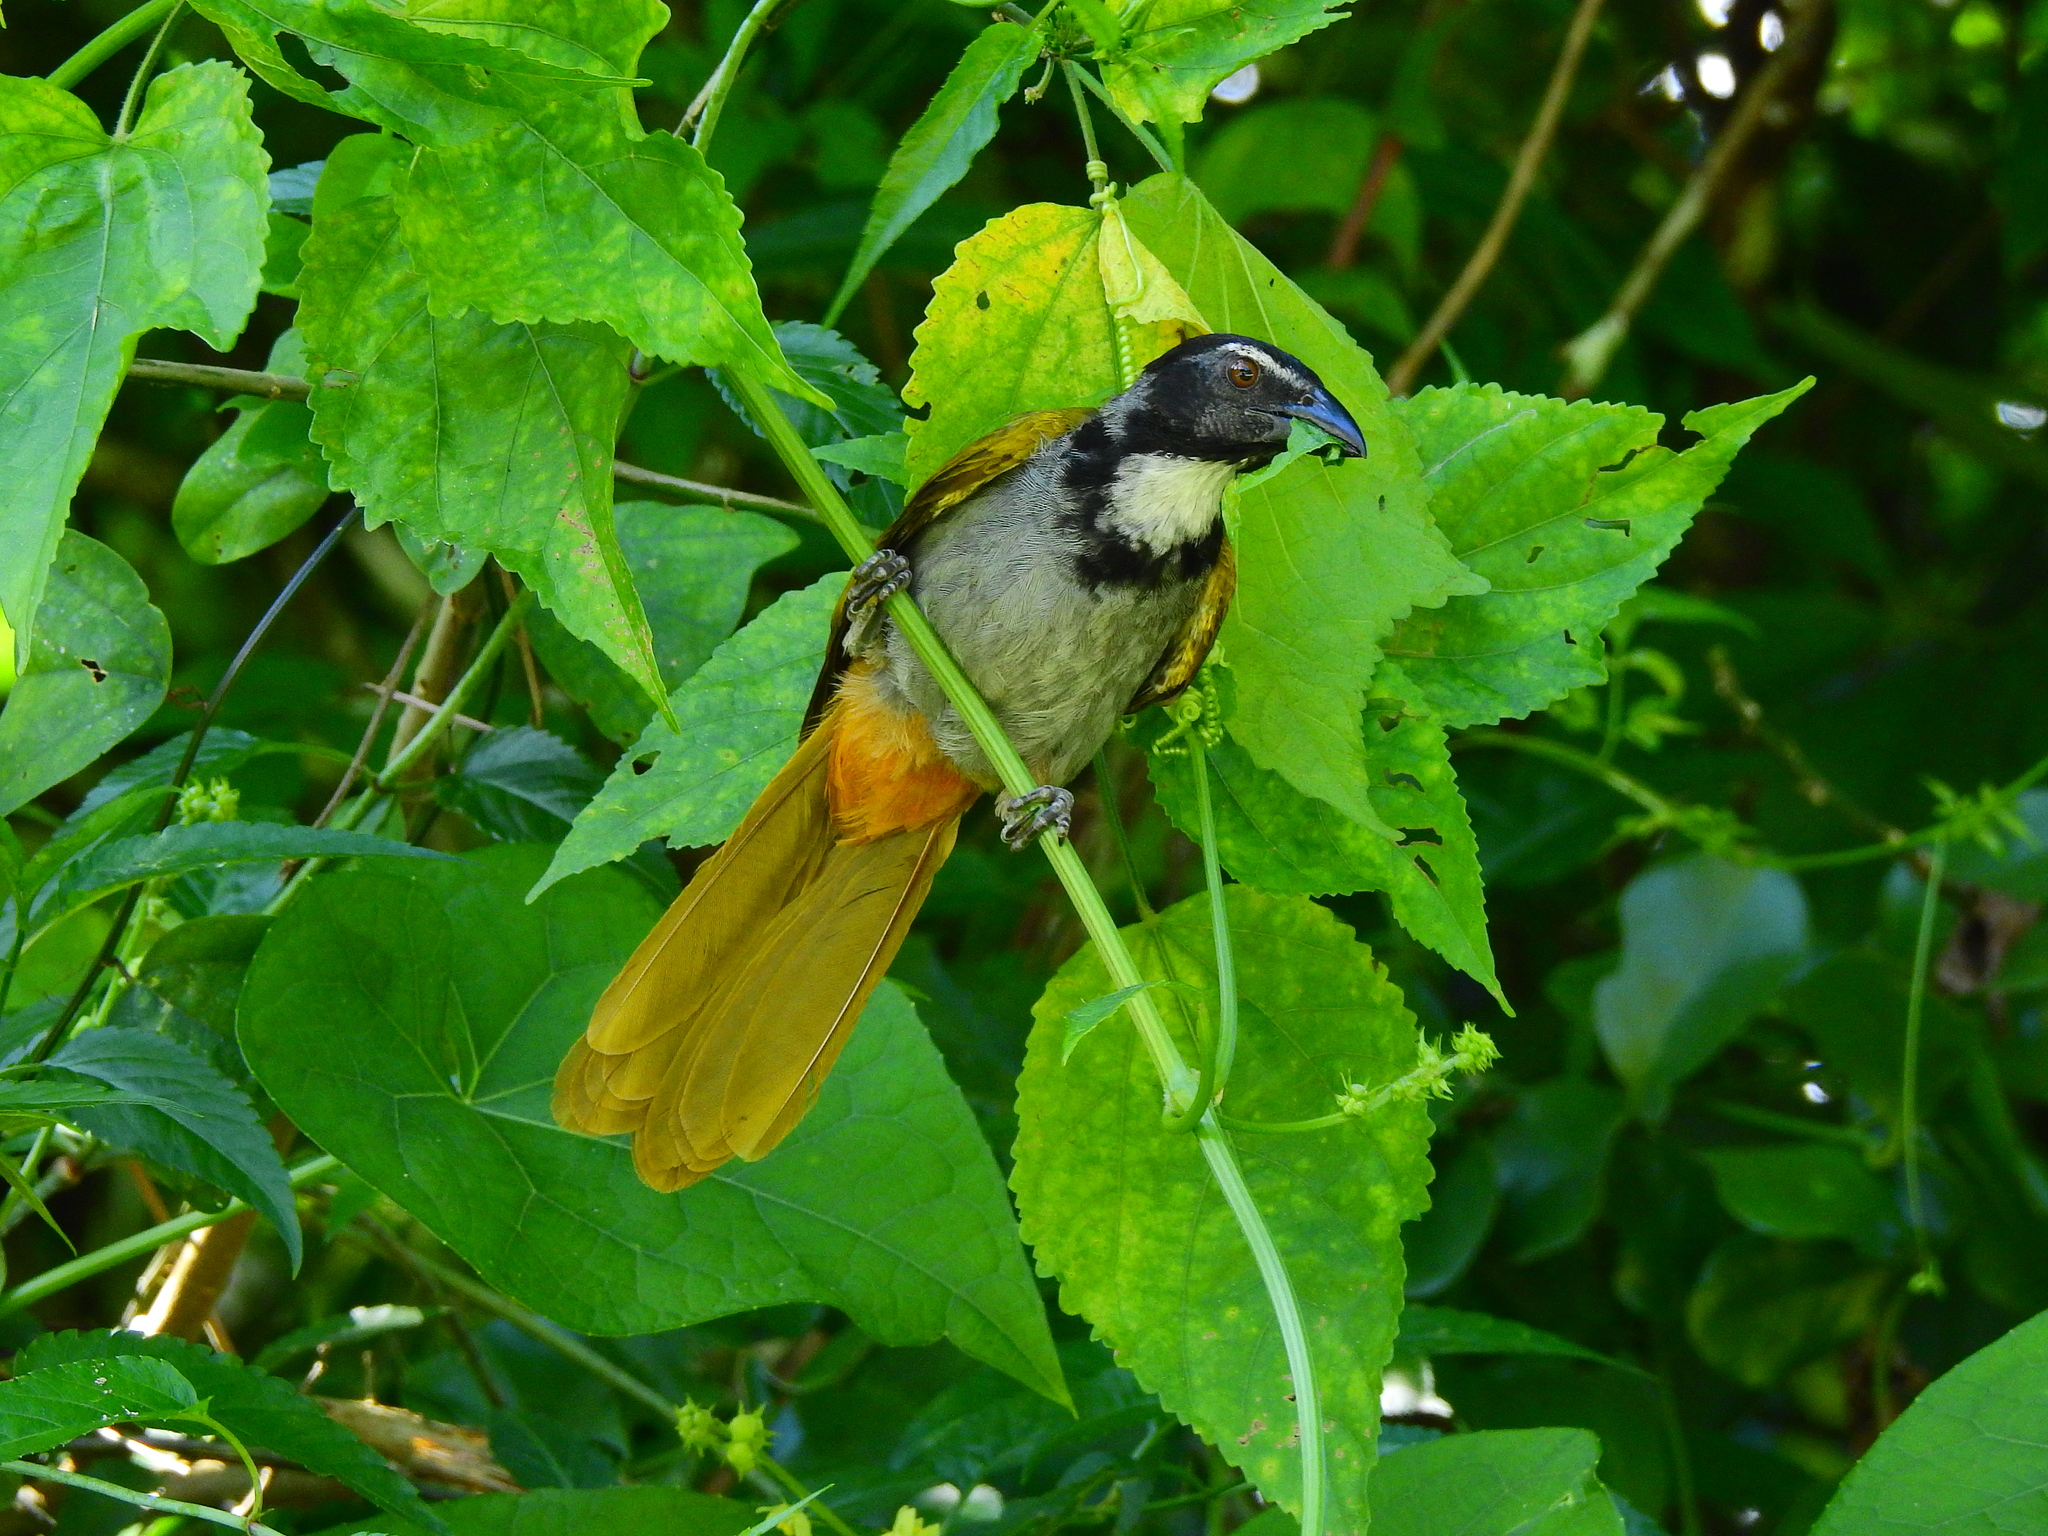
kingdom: Animalia
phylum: Chordata
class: Aves
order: Passeriformes
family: Thraupidae
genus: Saltator
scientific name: Saltator atriceps
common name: Black-headed saltator
